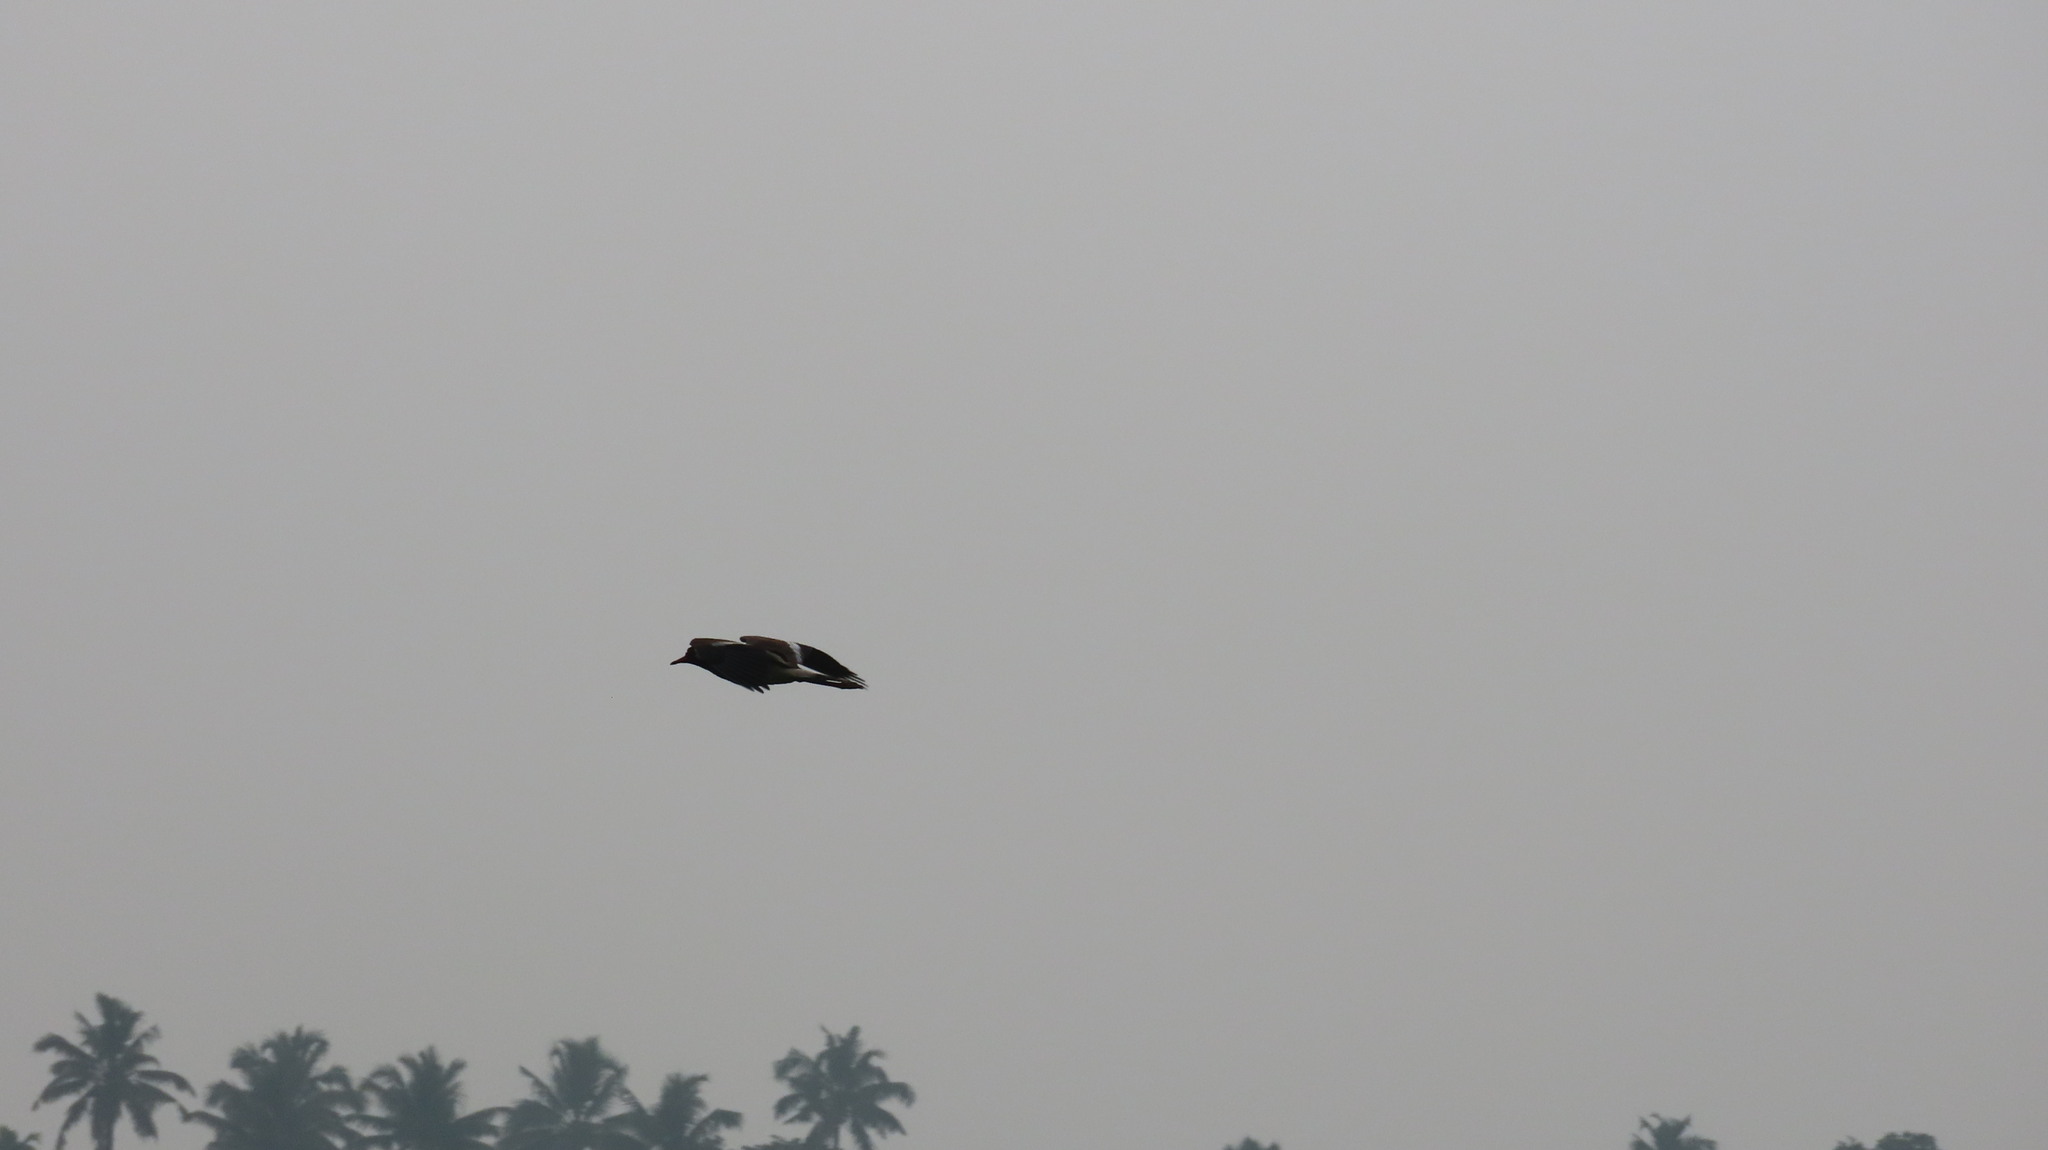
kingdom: Animalia
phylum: Chordata
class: Aves
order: Charadriiformes
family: Charadriidae
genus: Vanellus
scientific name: Vanellus indicus
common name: Red-wattled lapwing
